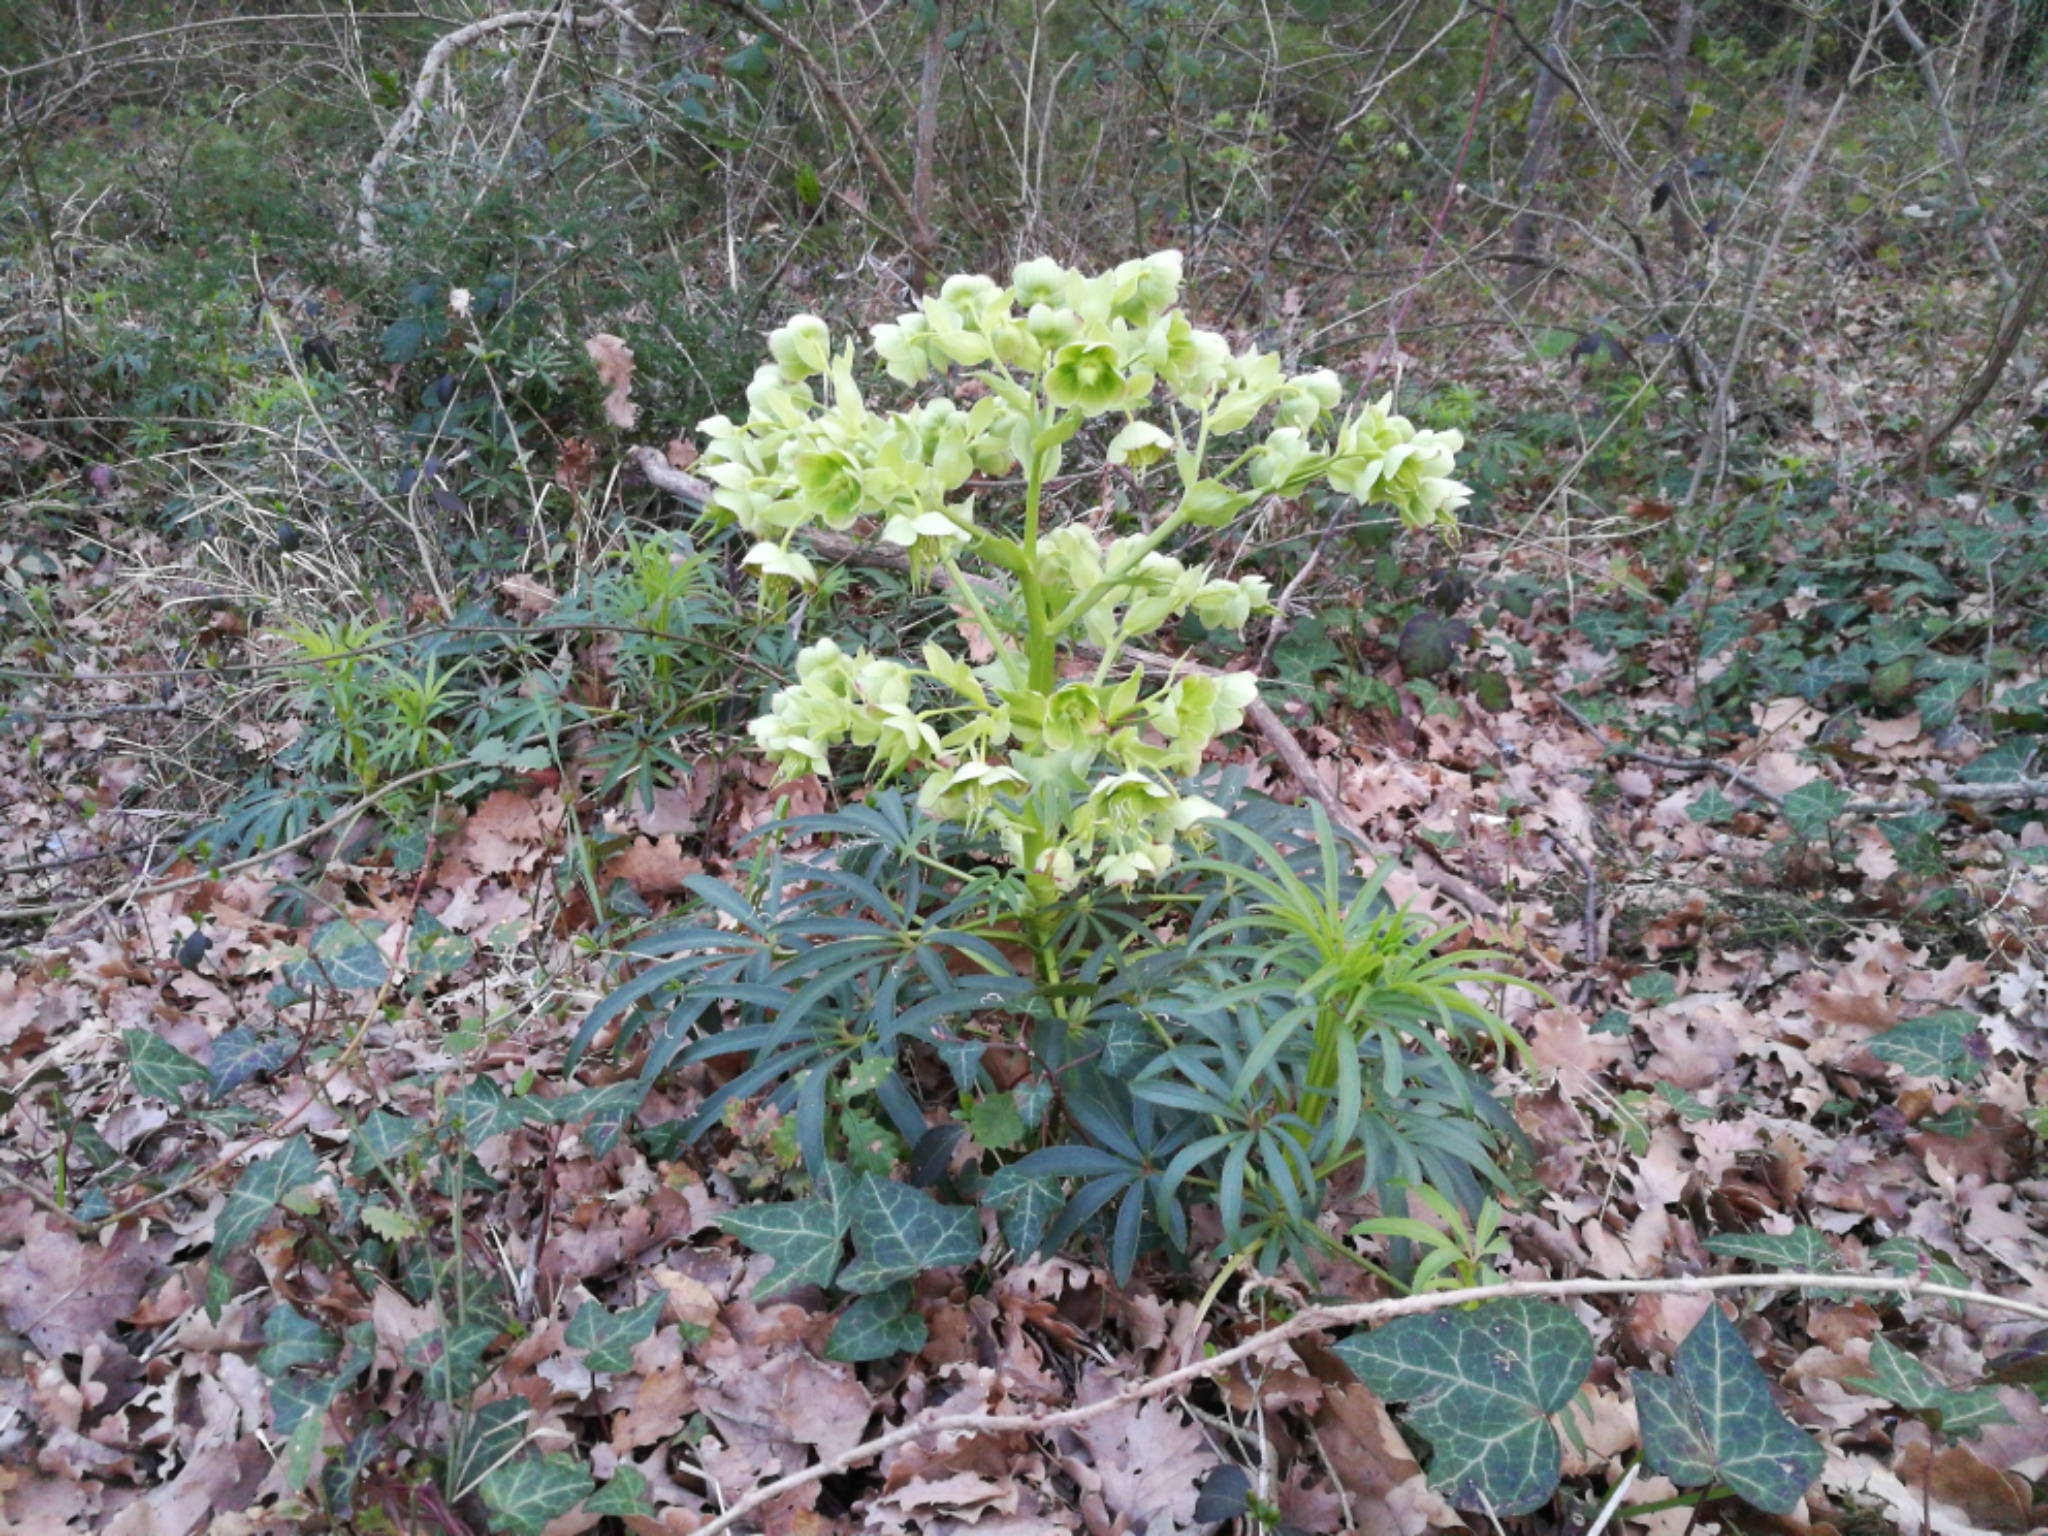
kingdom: Plantae
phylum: Tracheophyta
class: Magnoliopsida
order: Ranunculales
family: Ranunculaceae
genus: Helleborus
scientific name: Helleborus foetidus
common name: Stinking hellebore
